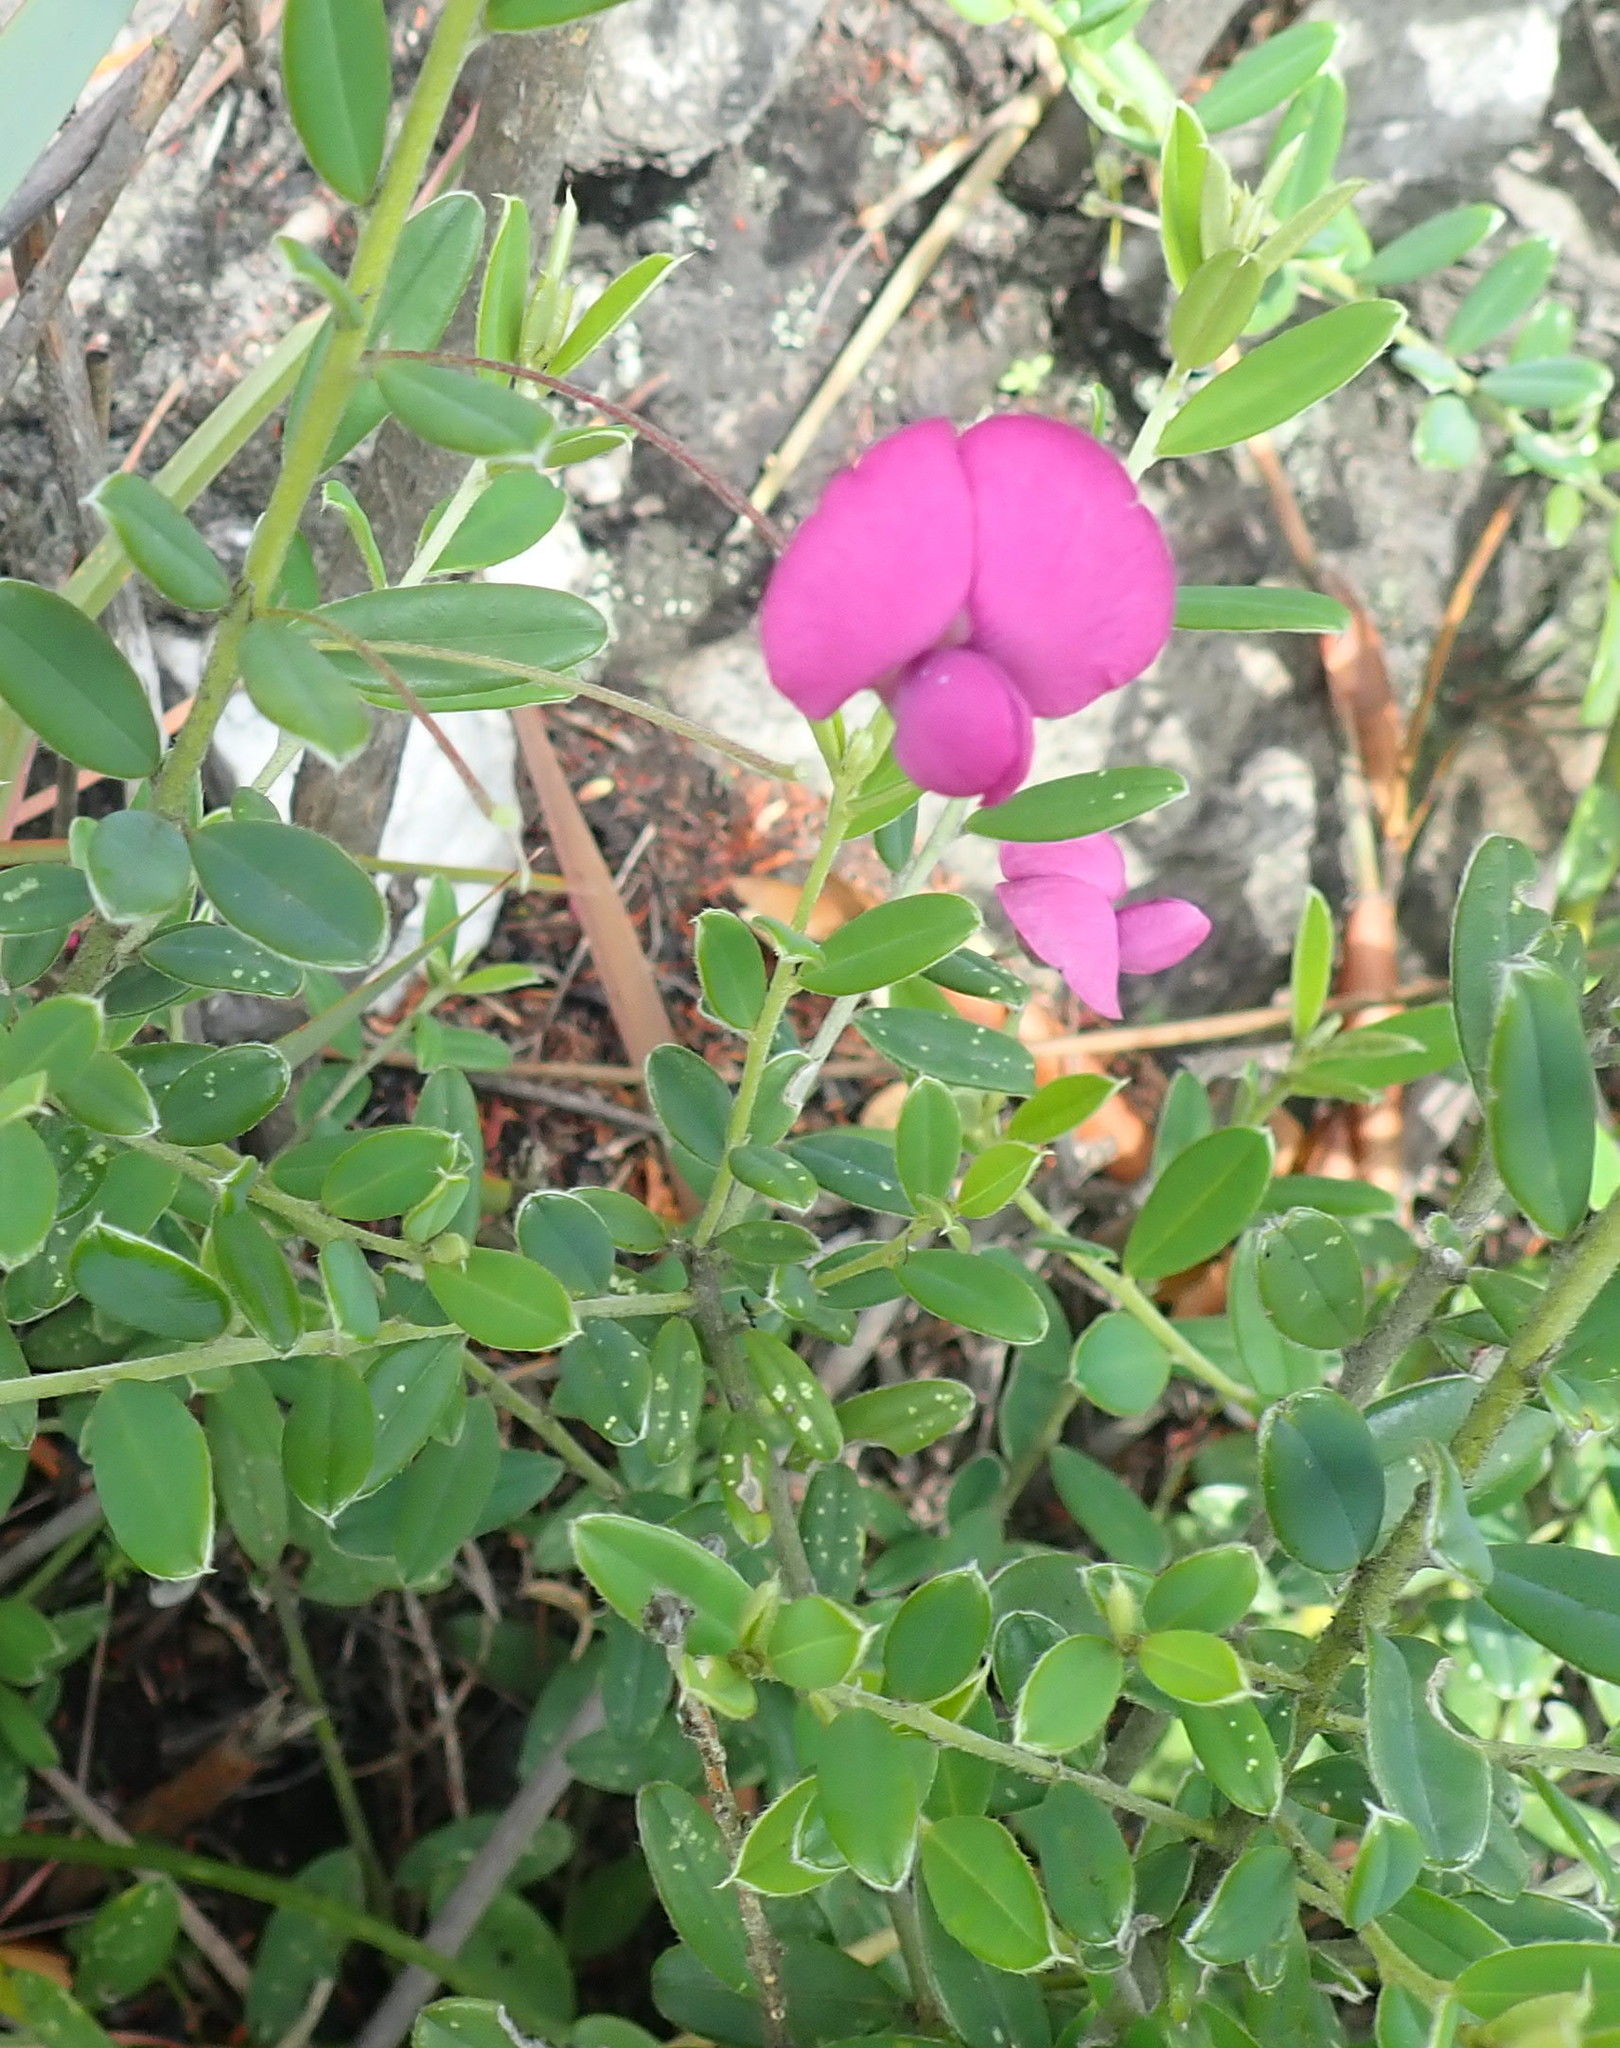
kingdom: Plantae
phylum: Tracheophyta
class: Magnoliopsida
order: Fabales
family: Fabaceae
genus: Podalyria
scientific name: Podalyria buxifolia
